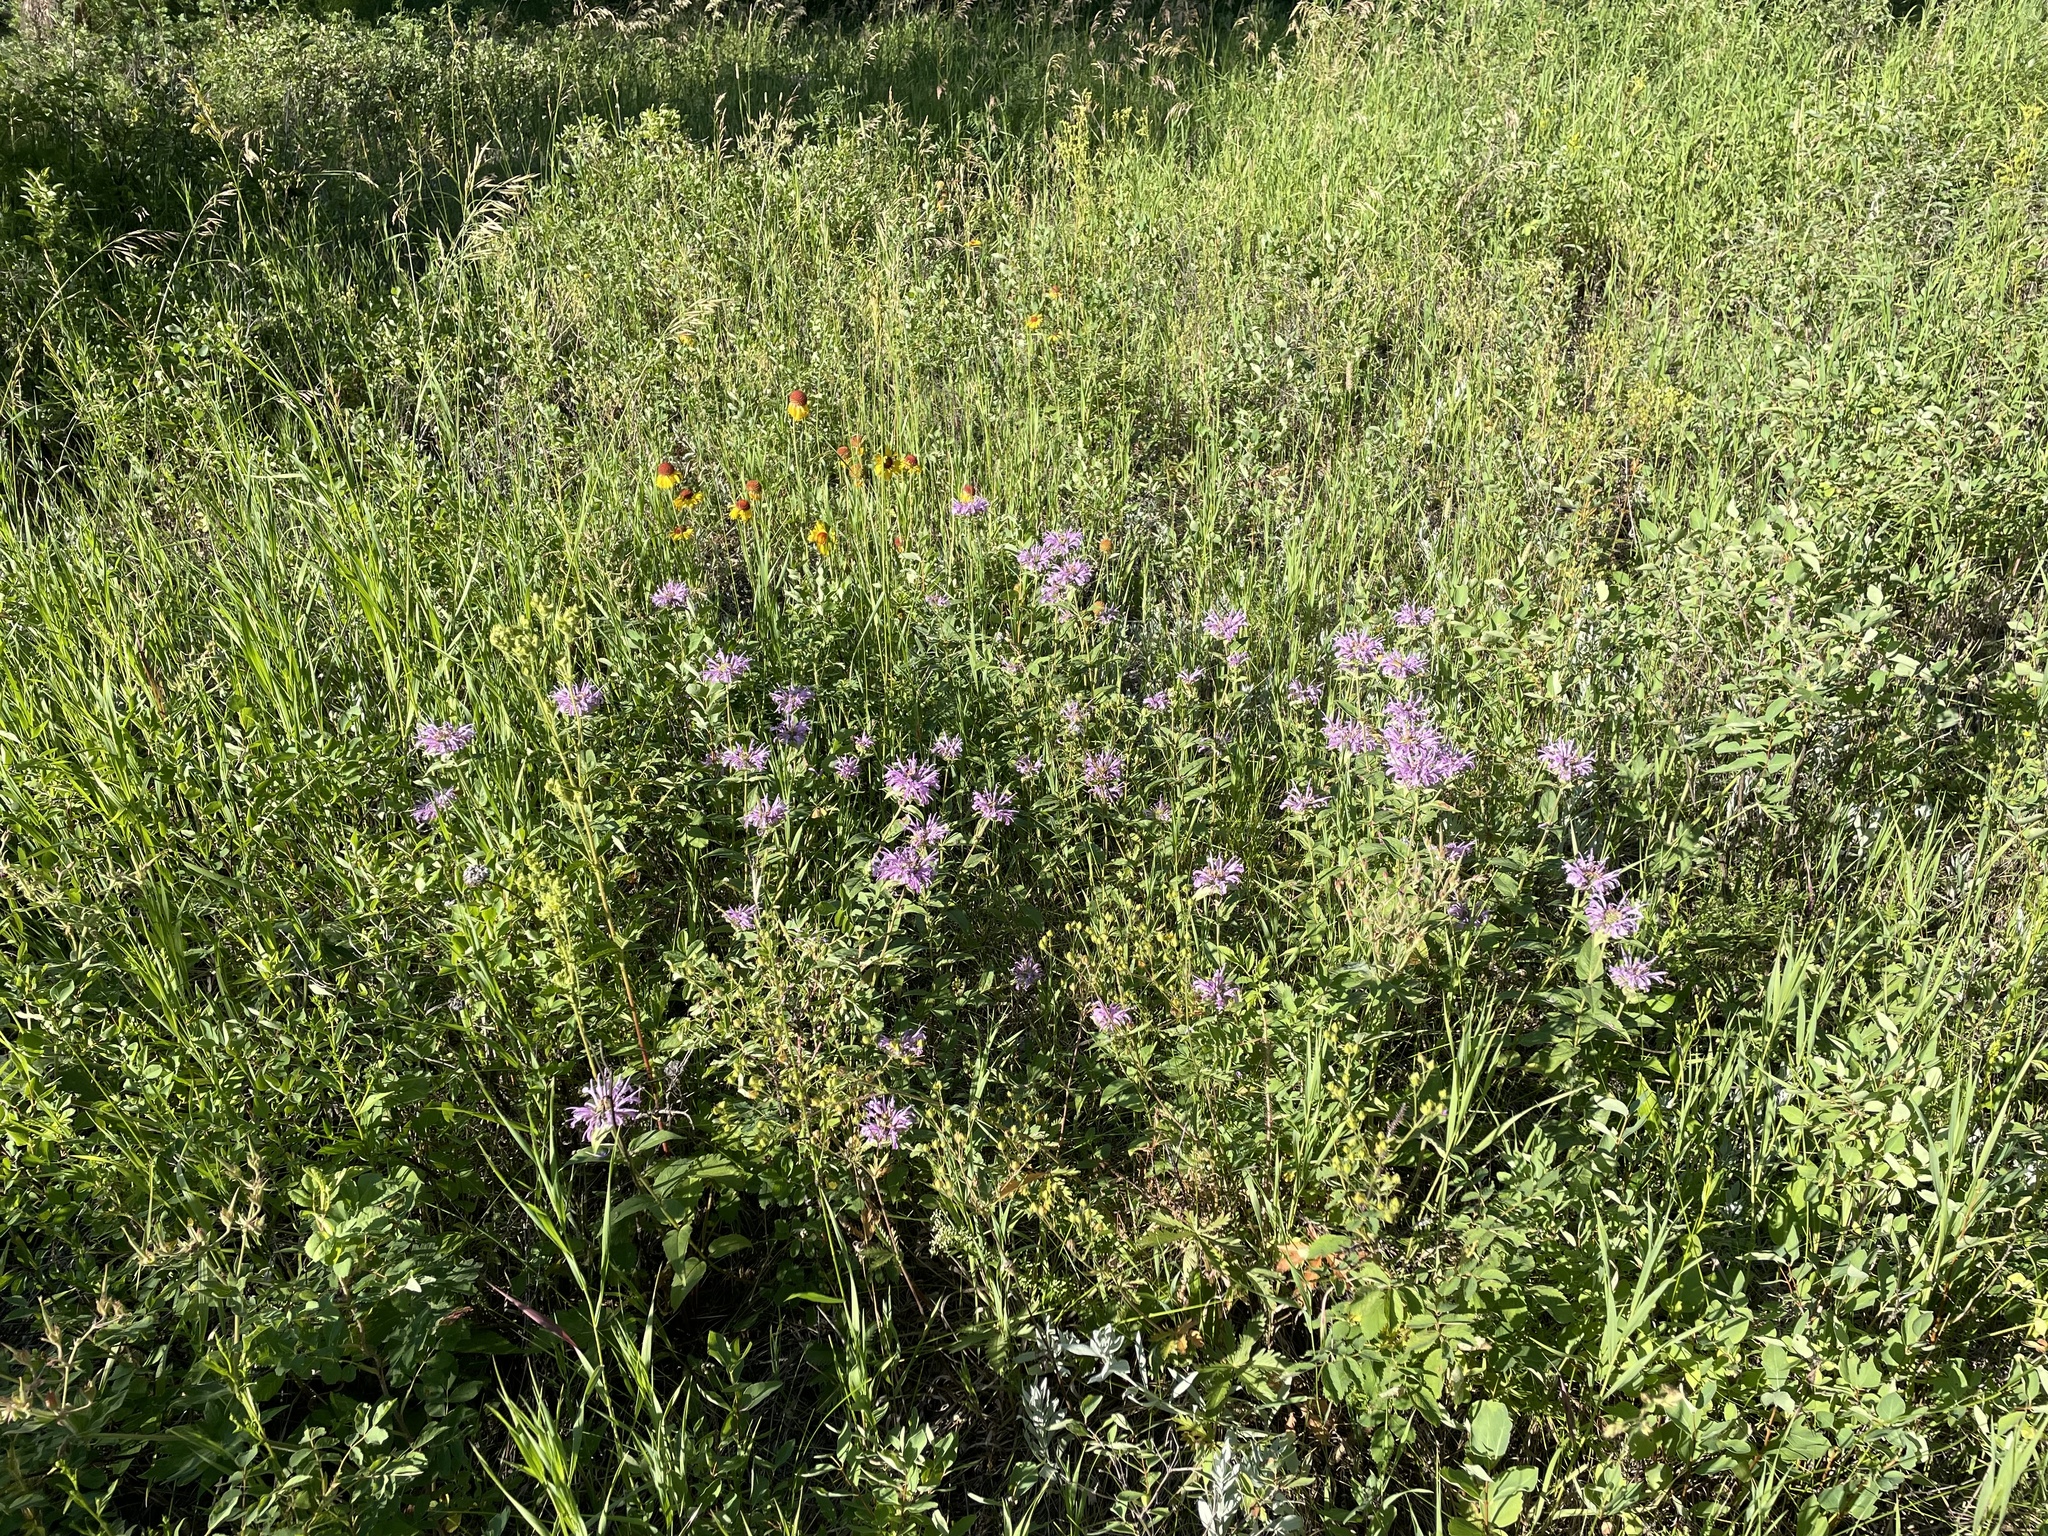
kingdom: Plantae
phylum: Tracheophyta
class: Magnoliopsida
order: Lamiales
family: Lamiaceae
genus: Monarda
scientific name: Monarda fistulosa
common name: Purple beebalm
